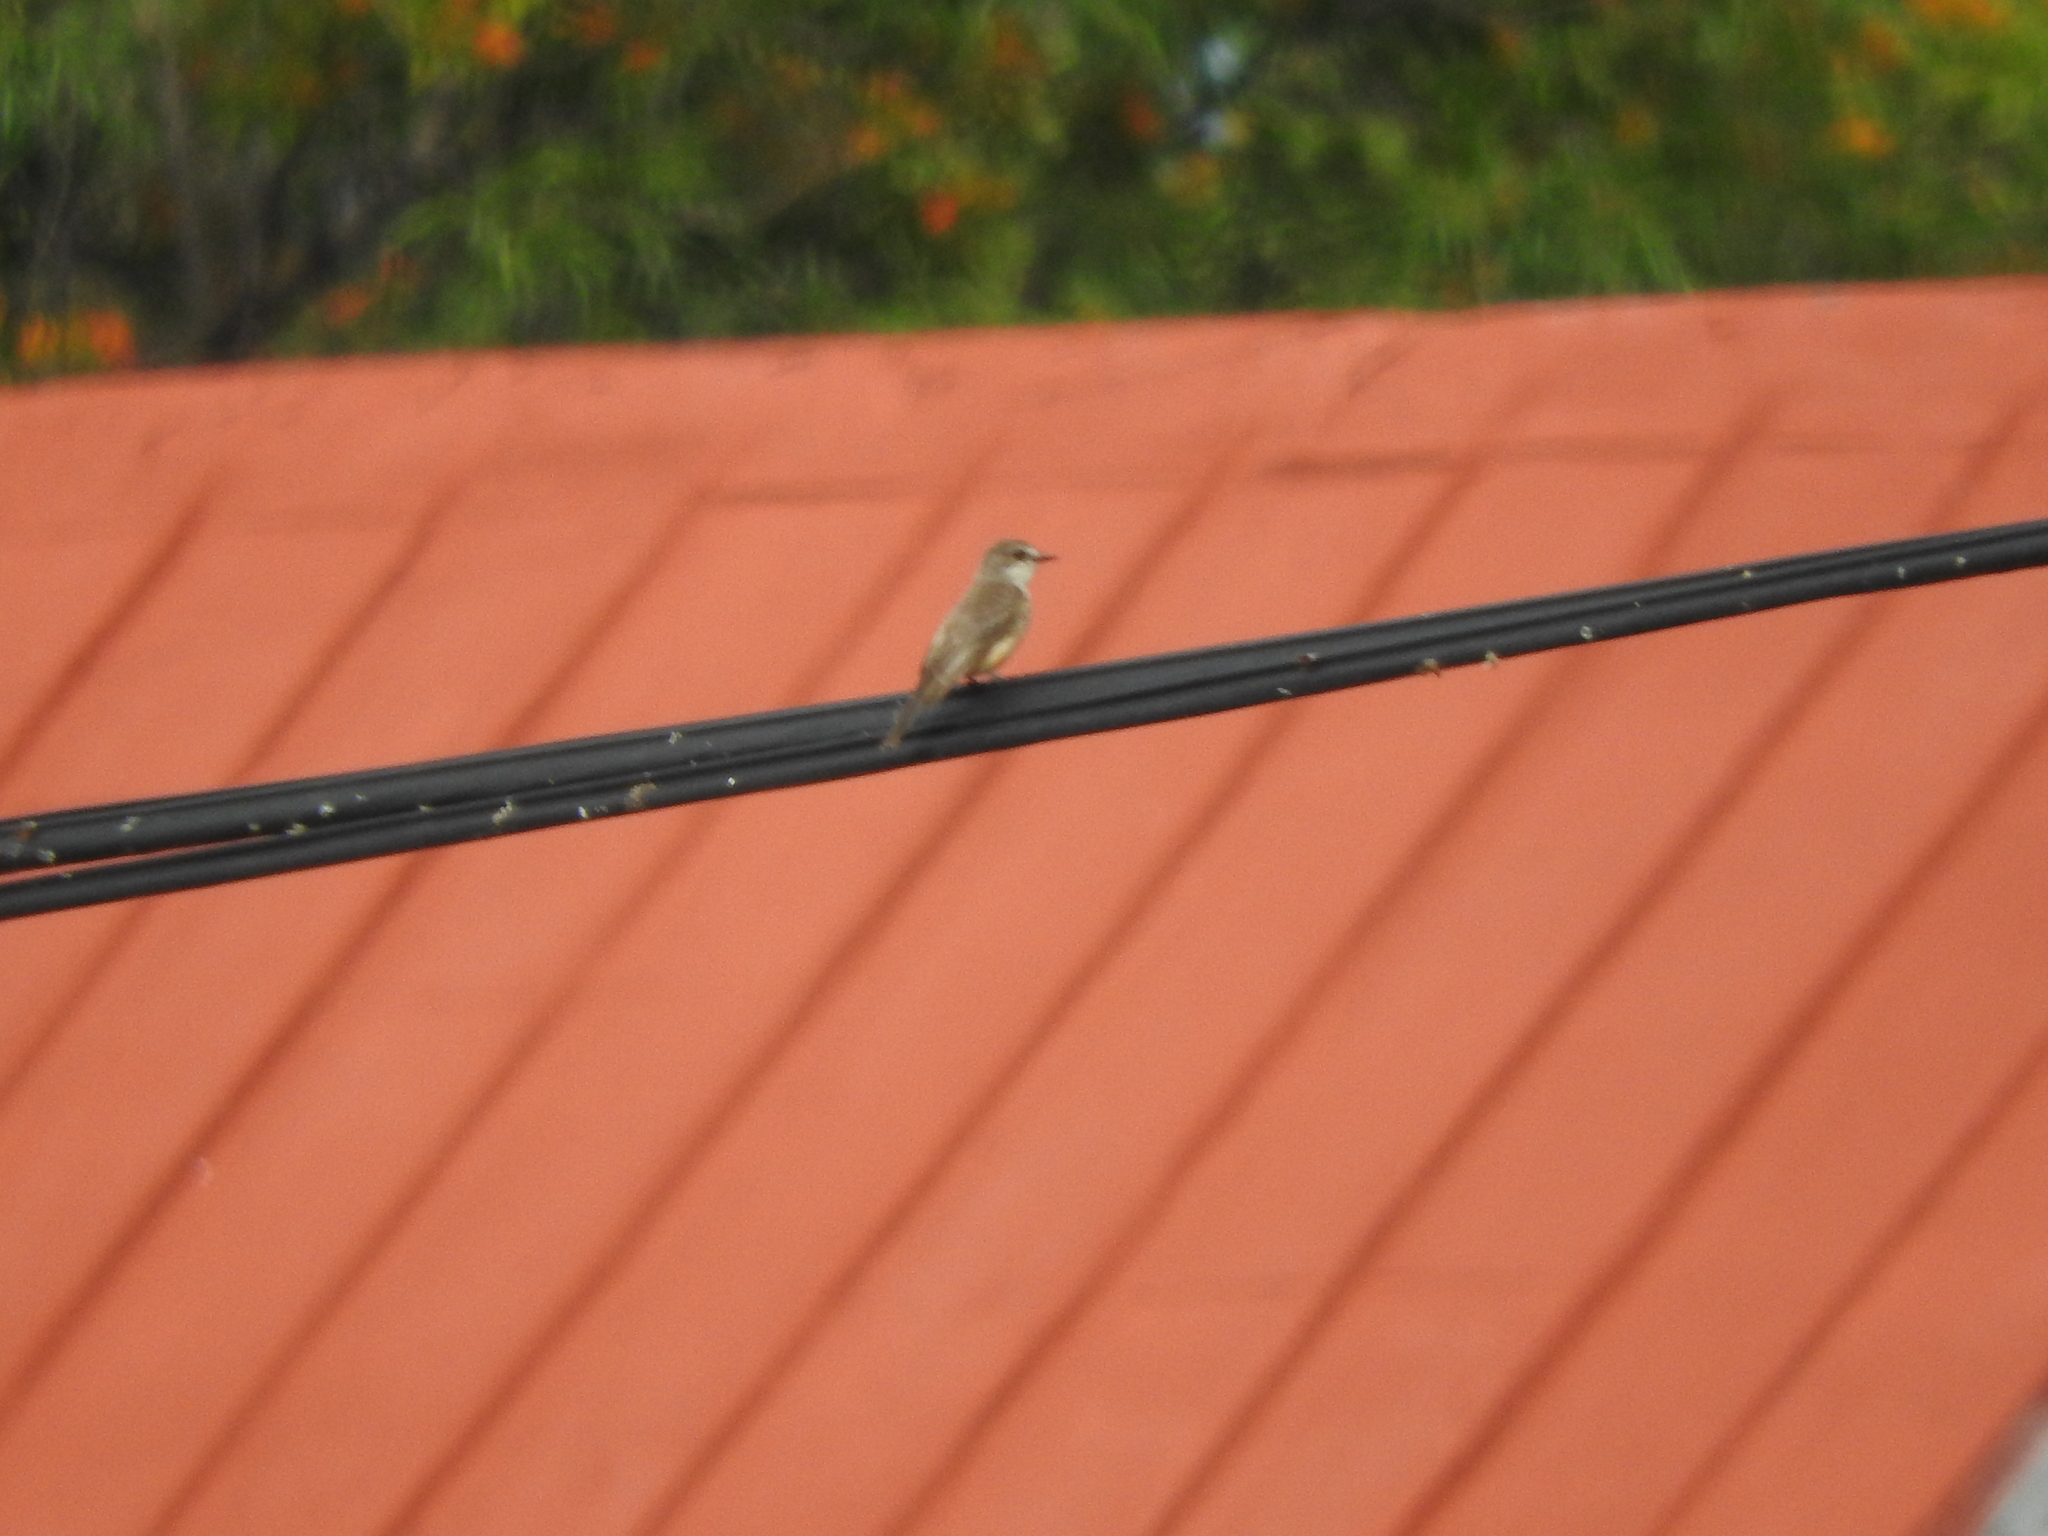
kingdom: Animalia
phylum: Chordata
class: Aves
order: Passeriformes
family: Tyrannidae
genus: Pyrocephalus
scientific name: Pyrocephalus rubinus
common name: Vermilion flycatcher
